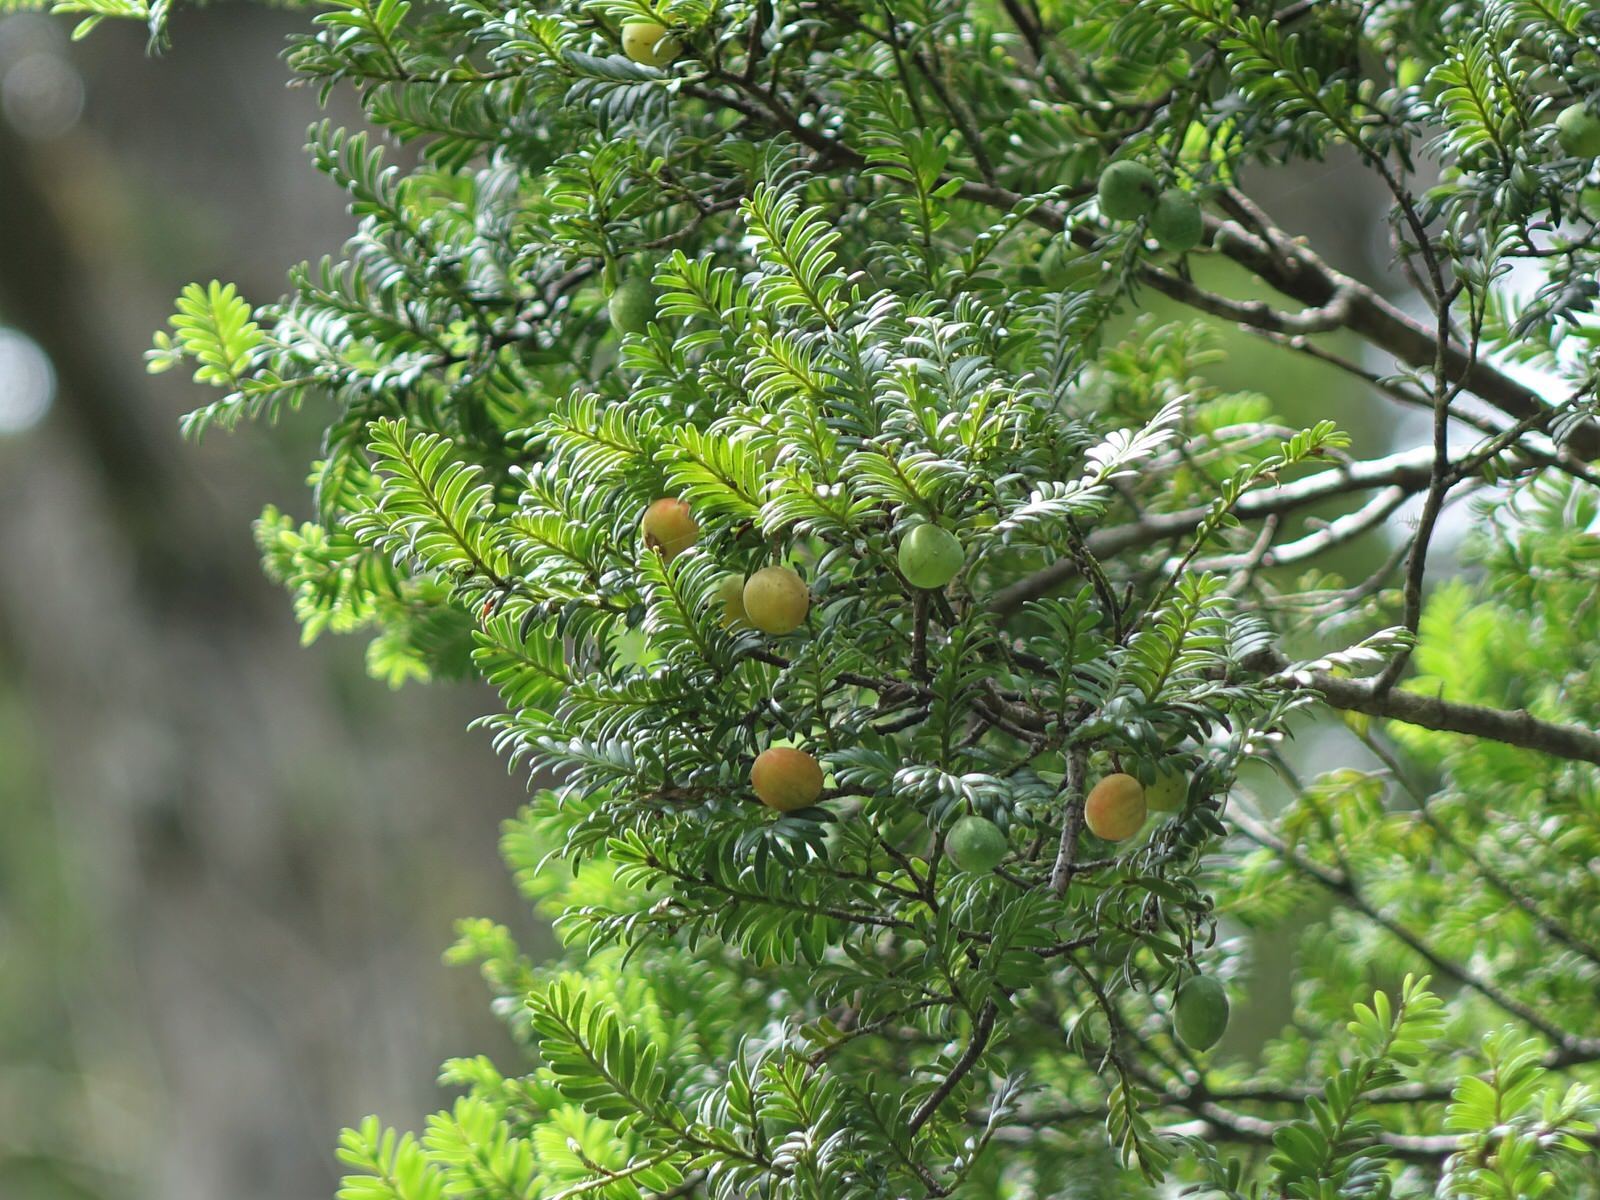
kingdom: Plantae
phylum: Tracheophyta
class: Pinopsida
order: Pinales
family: Podocarpaceae
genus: Prumnopitys
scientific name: Prumnopitys ferruginea
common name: Brown pine
